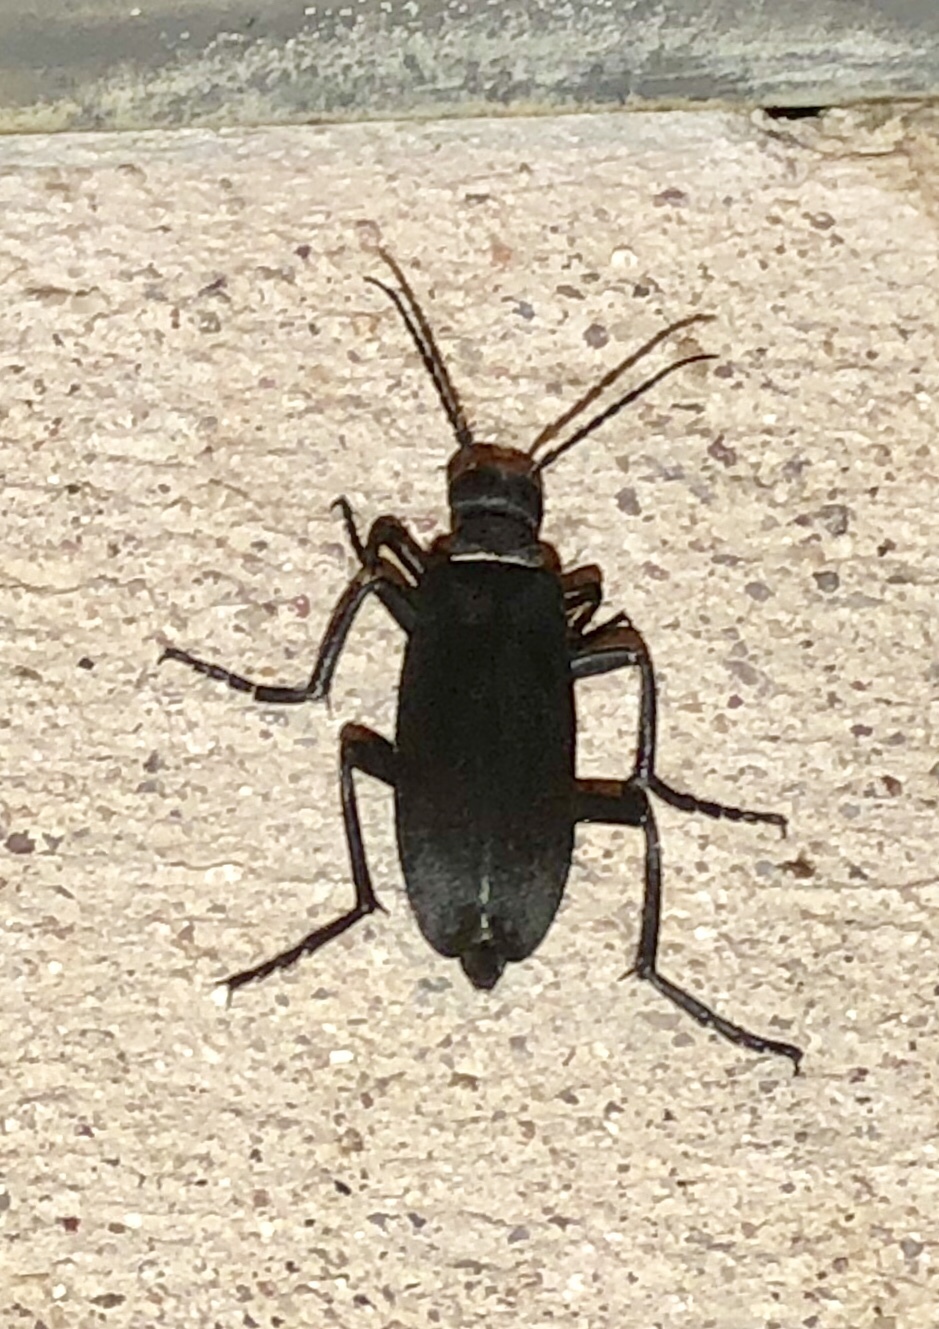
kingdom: Animalia
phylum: Arthropoda
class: Insecta
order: Coleoptera
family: Meloidae
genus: Epicauta
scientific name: Epicauta segmenta
